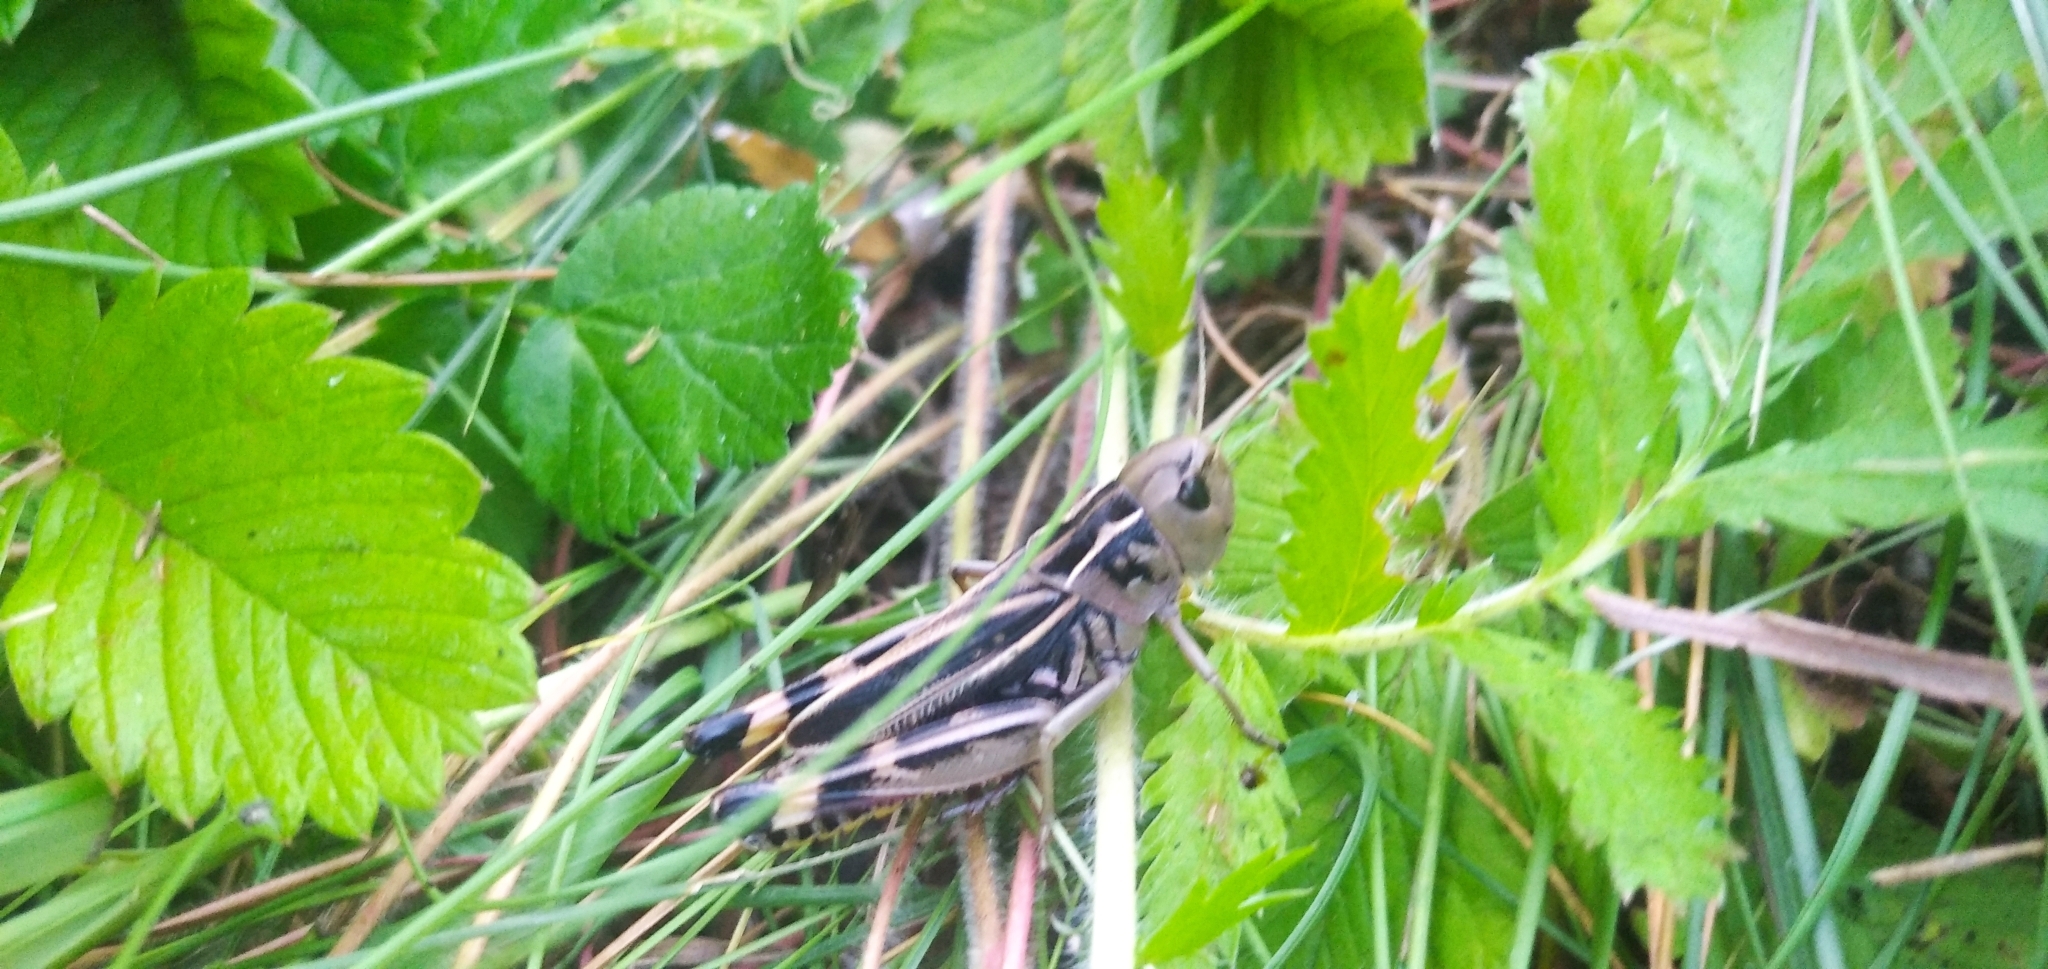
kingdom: Animalia
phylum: Arthropoda
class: Insecta
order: Orthoptera
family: Acrididae
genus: Arcyptera
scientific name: Arcyptera fusca
